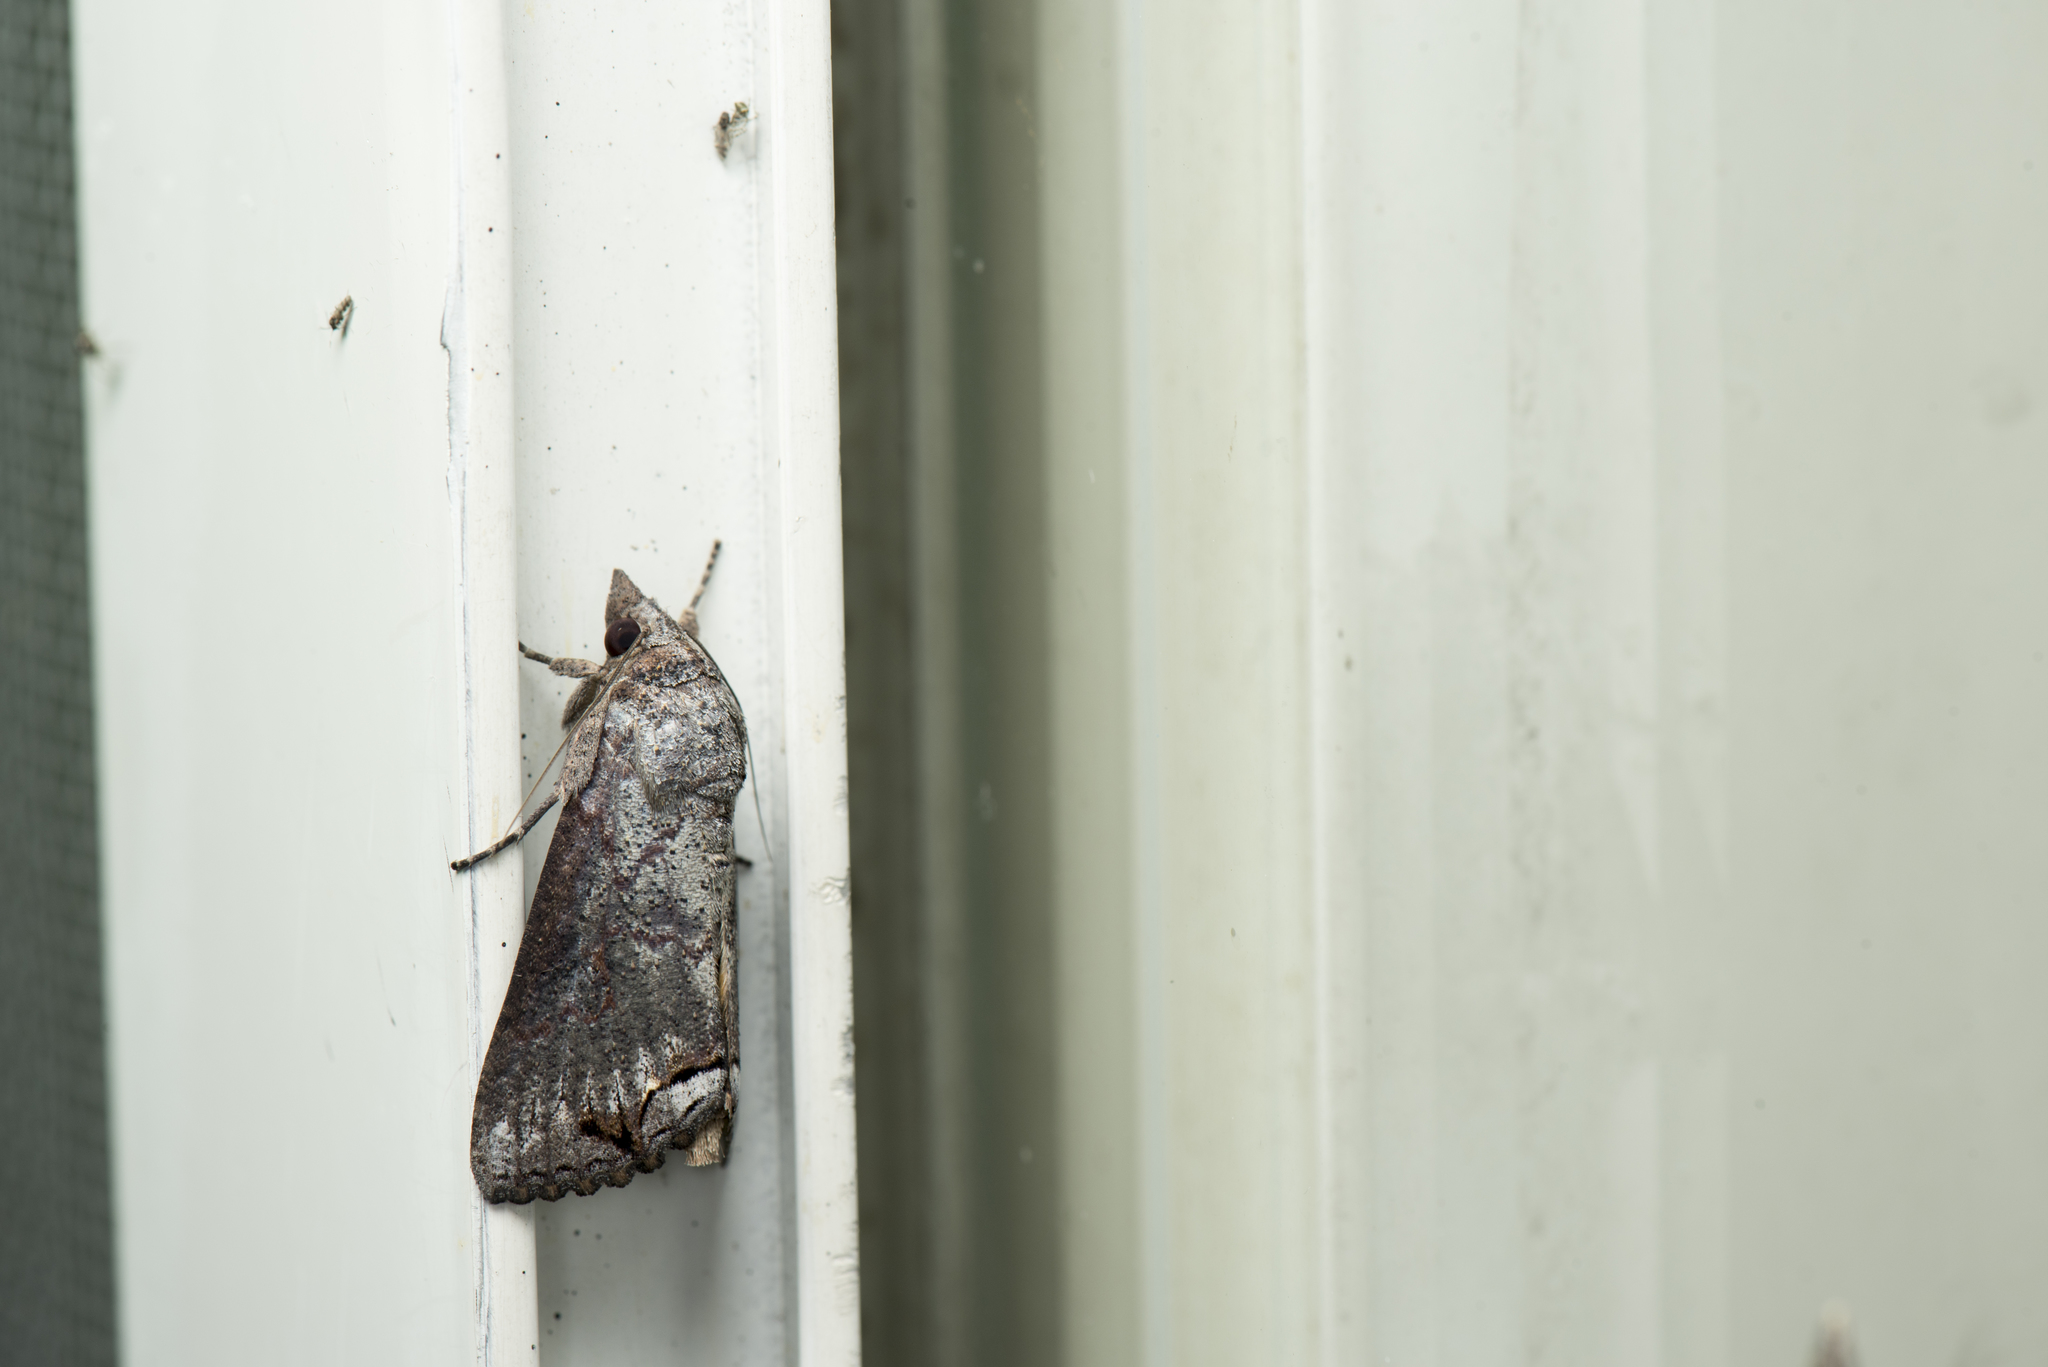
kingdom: Animalia
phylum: Arthropoda
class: Insecta
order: Lepidoptera
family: Erebidae
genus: Hypocala
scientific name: Hypocala deflorata
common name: Moth
